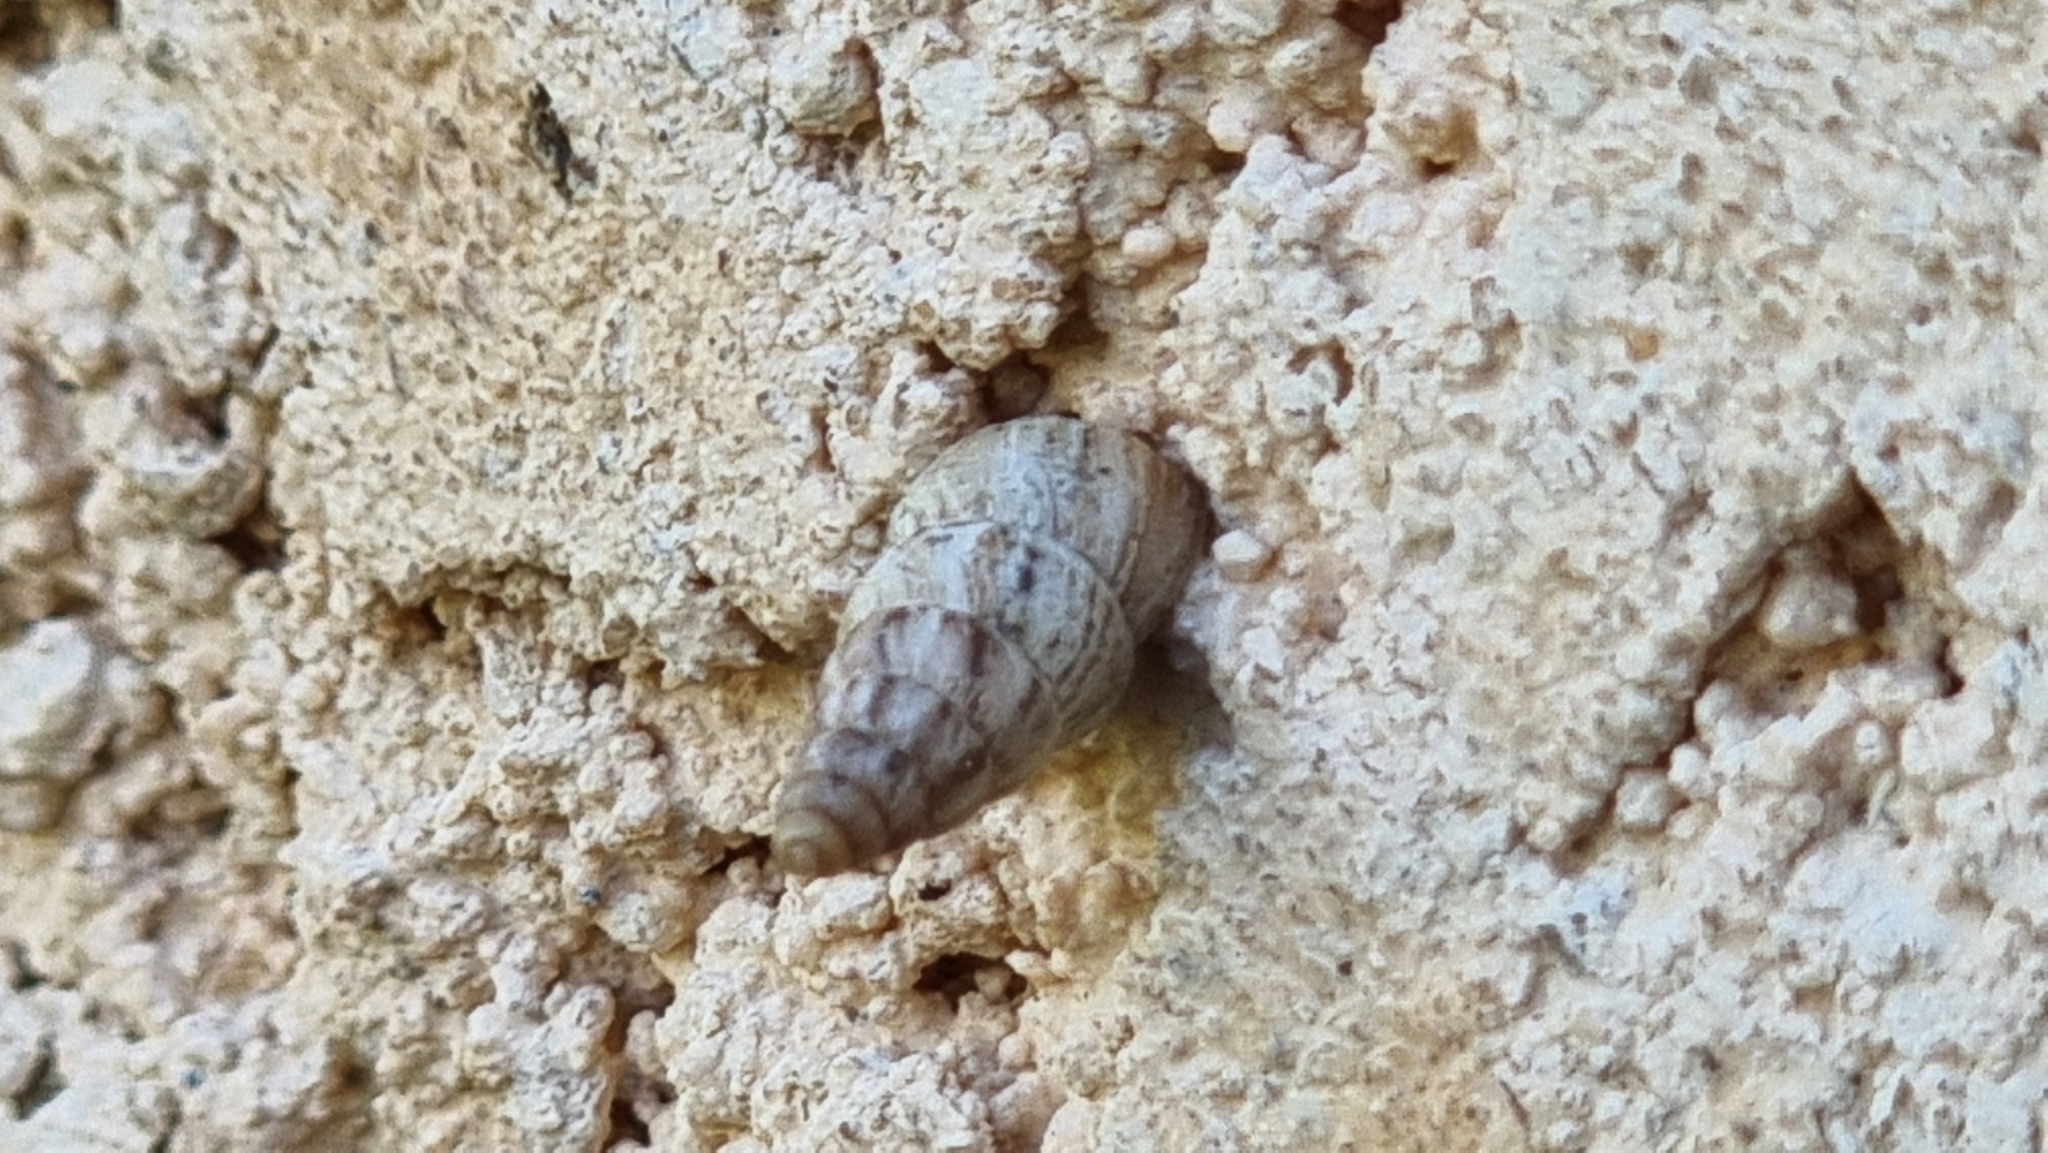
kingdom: Animalia
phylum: Mollusca
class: Gastropoda
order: Stylommatophora
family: Geomitridae
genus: Cochlicella
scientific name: Cochlicella acuta
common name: Pointed snail
